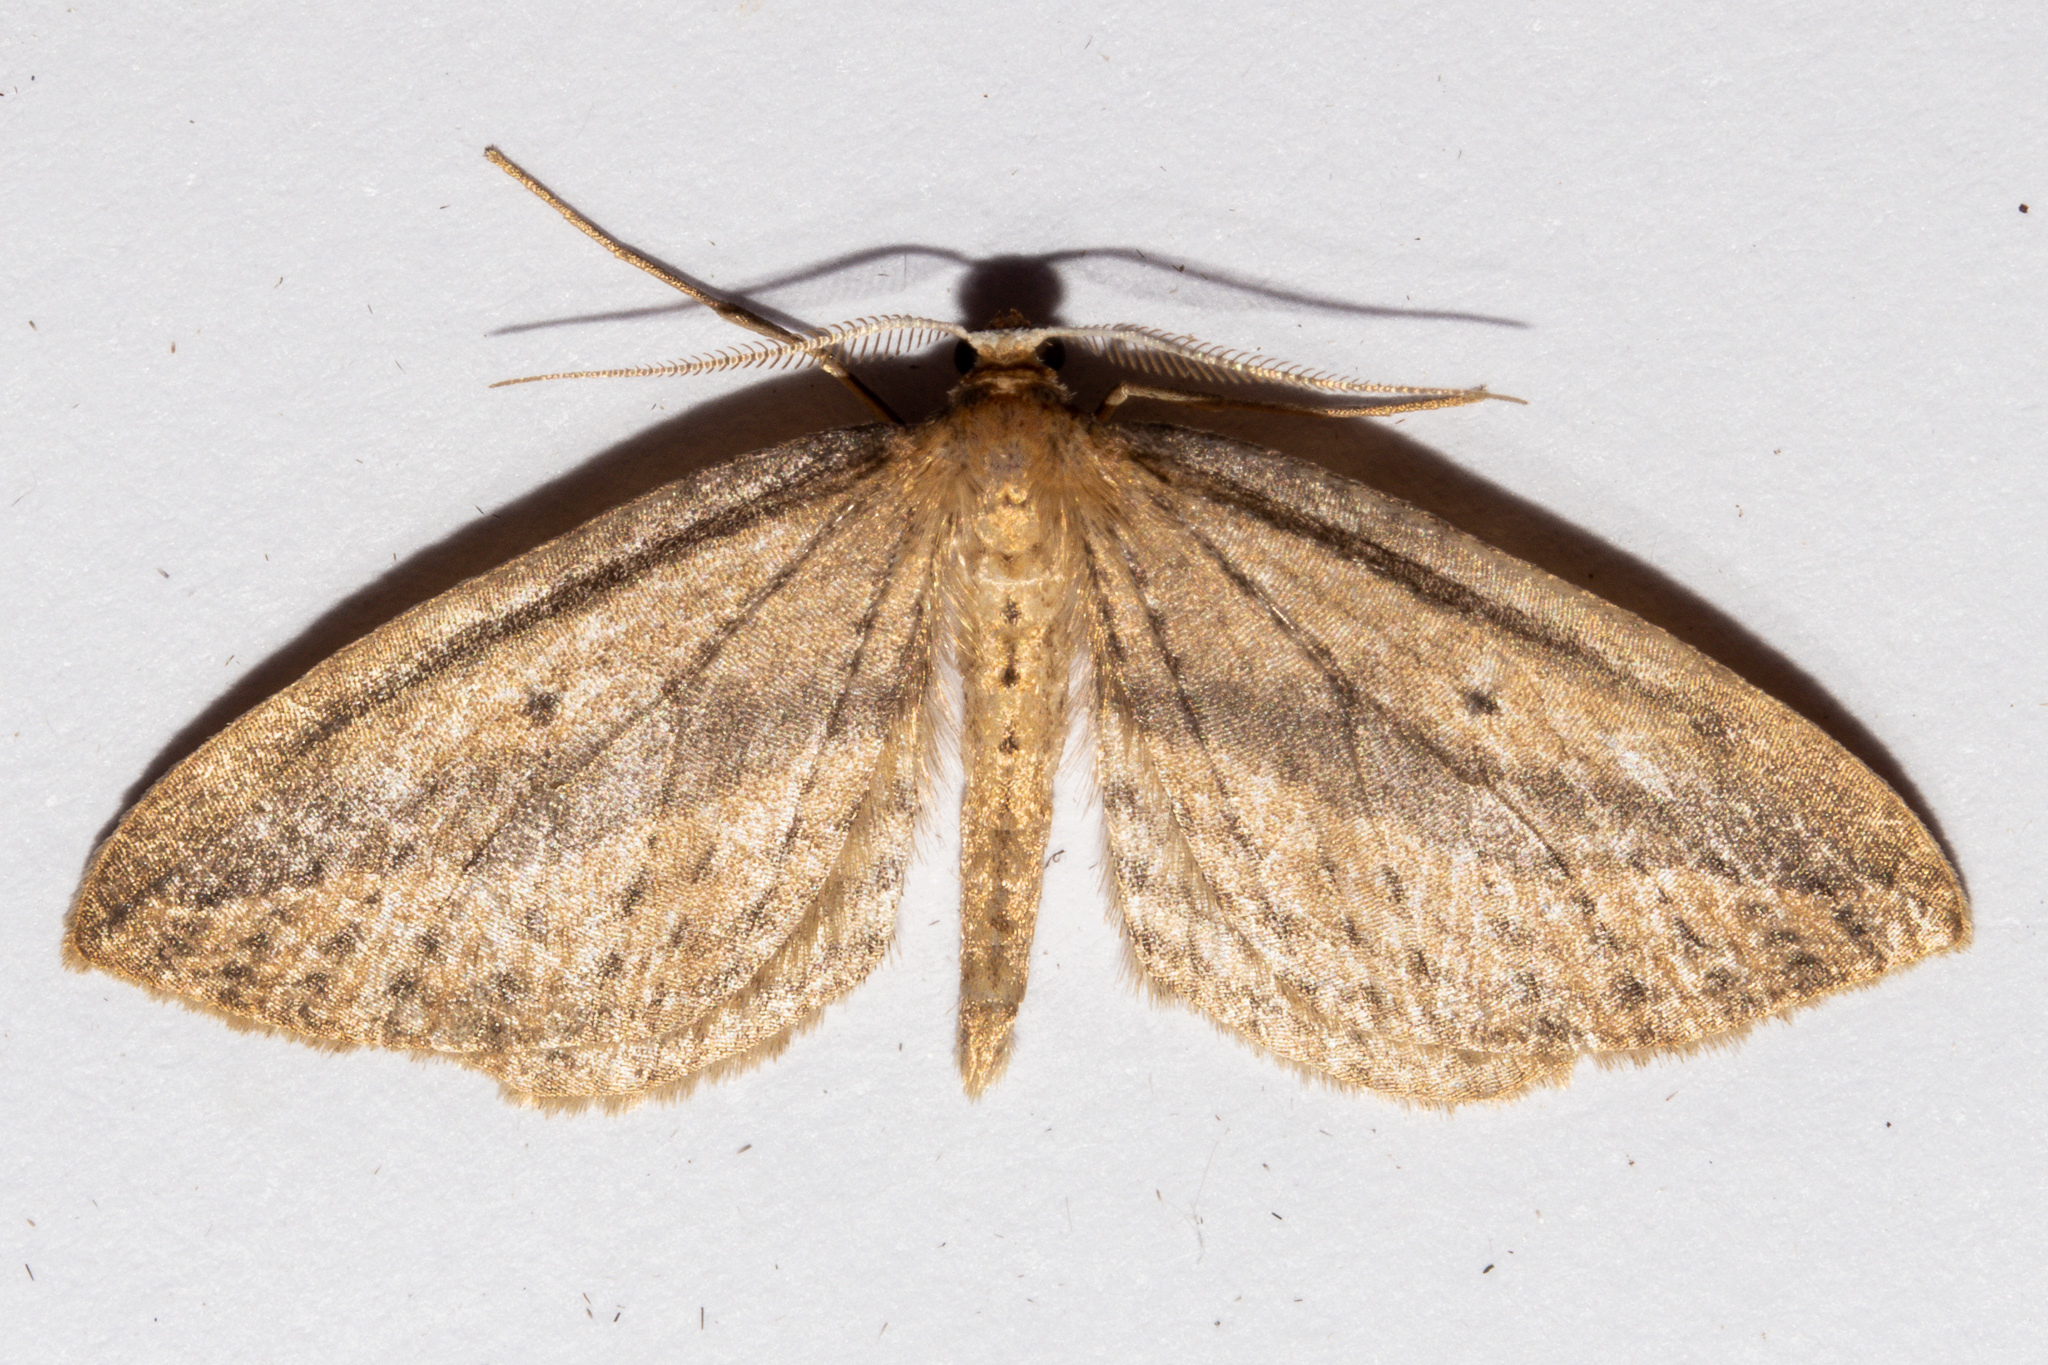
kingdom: Animalia
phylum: Arthropoda
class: Insecta
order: Lepidoptera
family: Geometridae
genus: Epiphryne
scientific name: Epiphryne charidema
